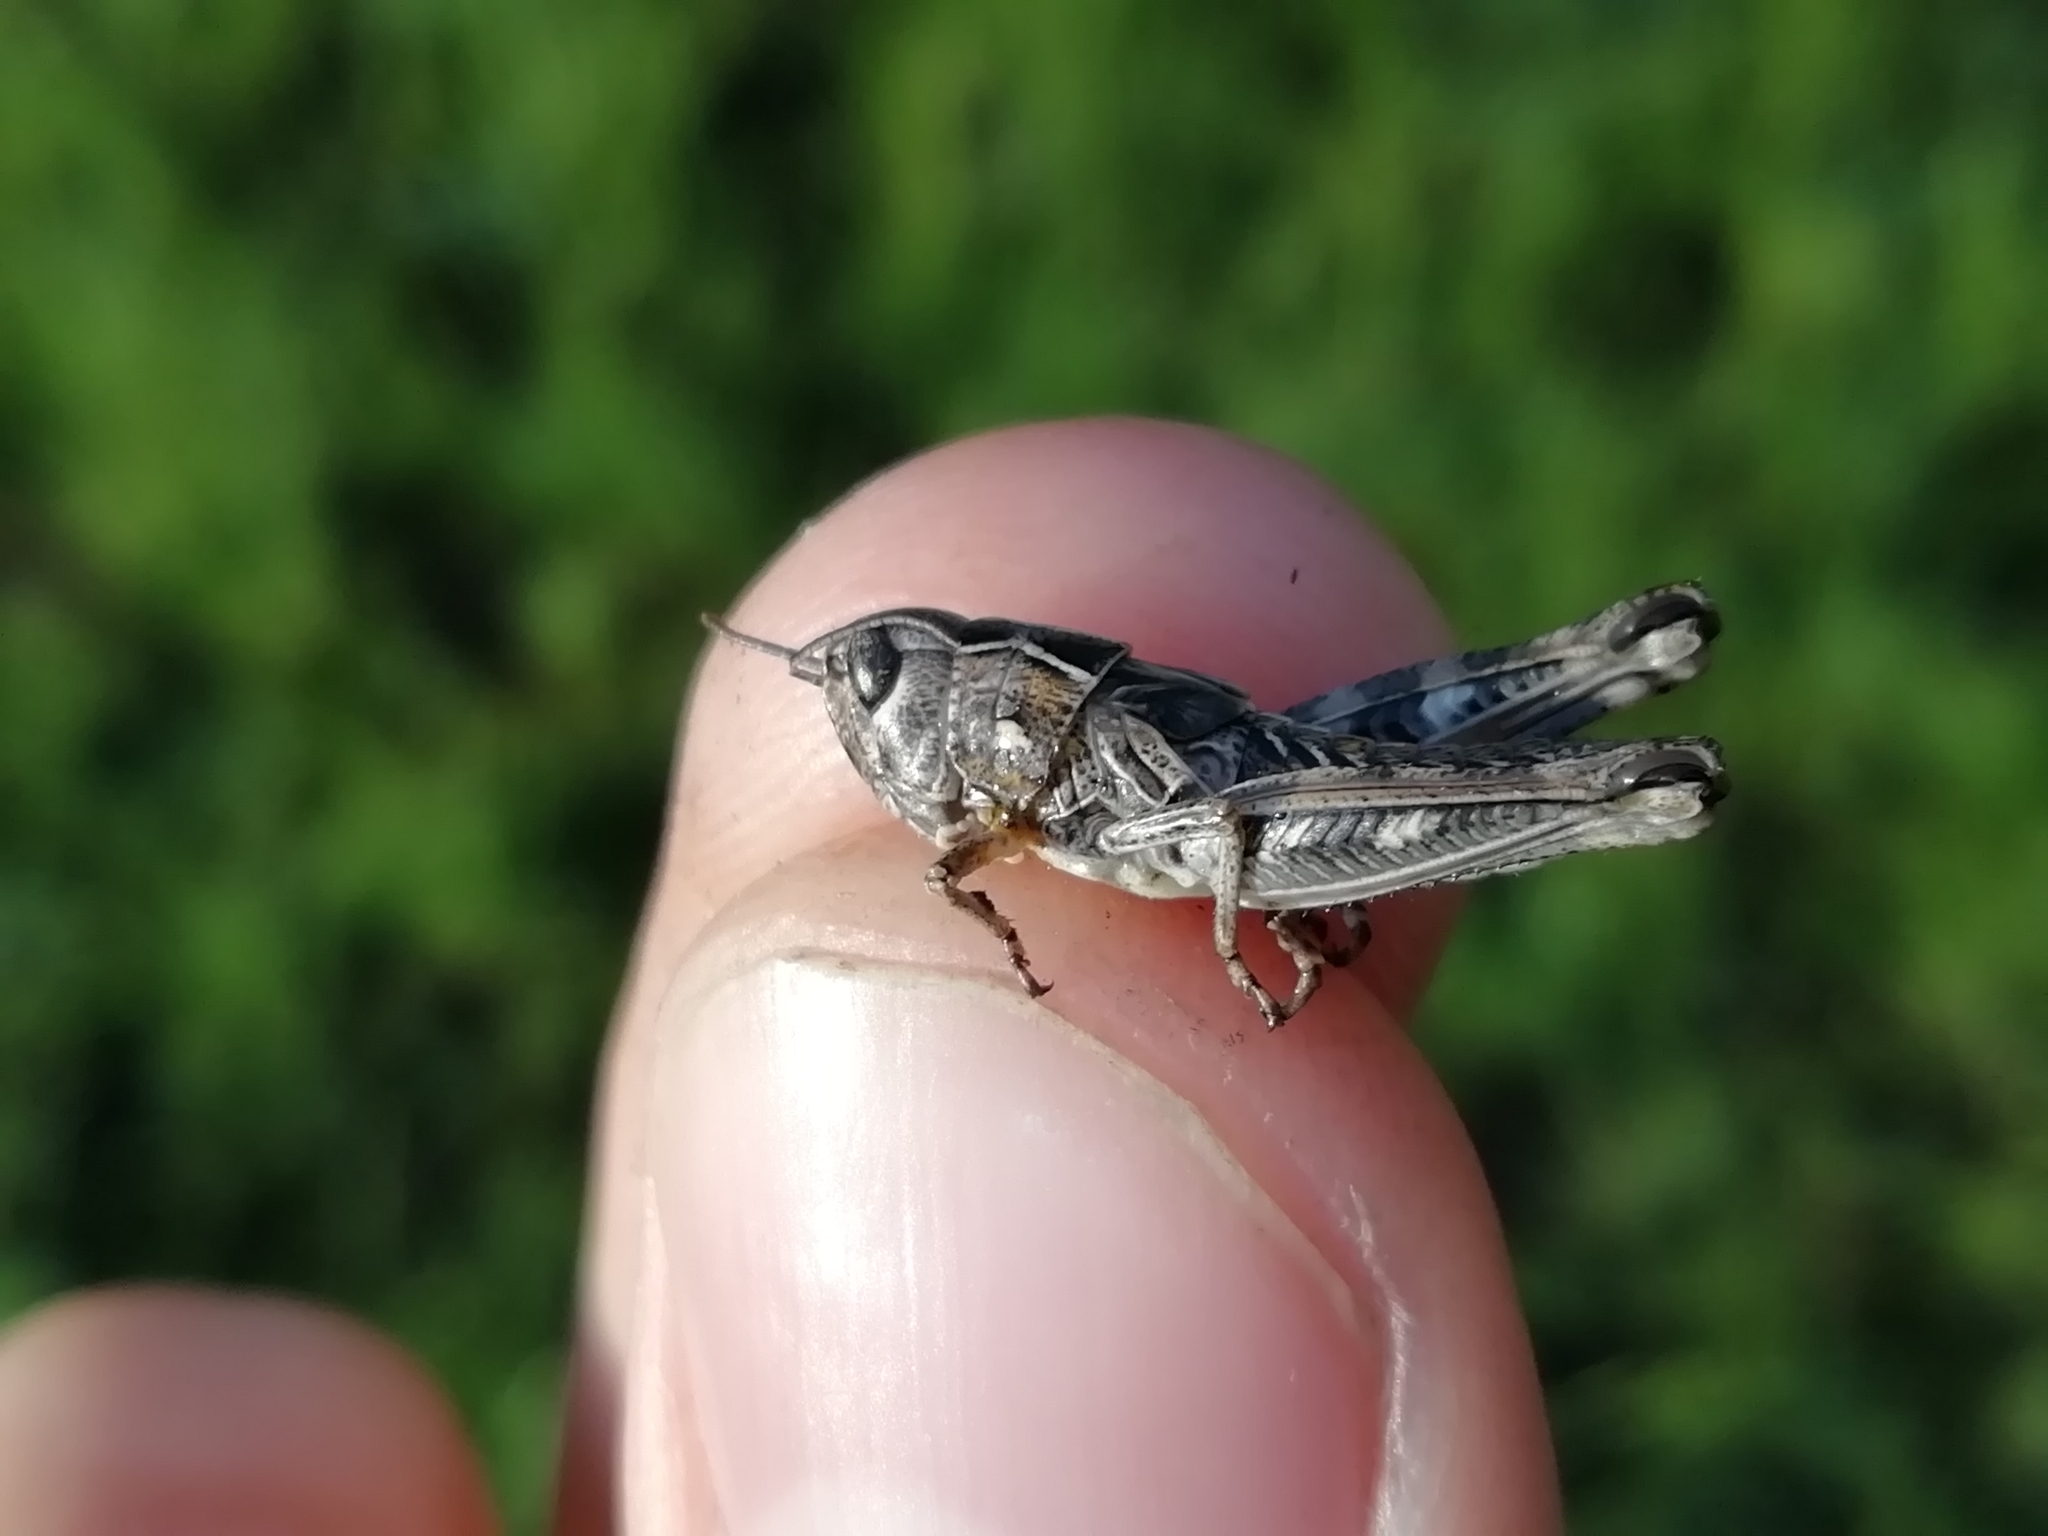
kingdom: Animalia
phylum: Arthropoda
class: Insecta
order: Orthoptera
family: Acrididae
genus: Arcyptera
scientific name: Arcyptera microptera
